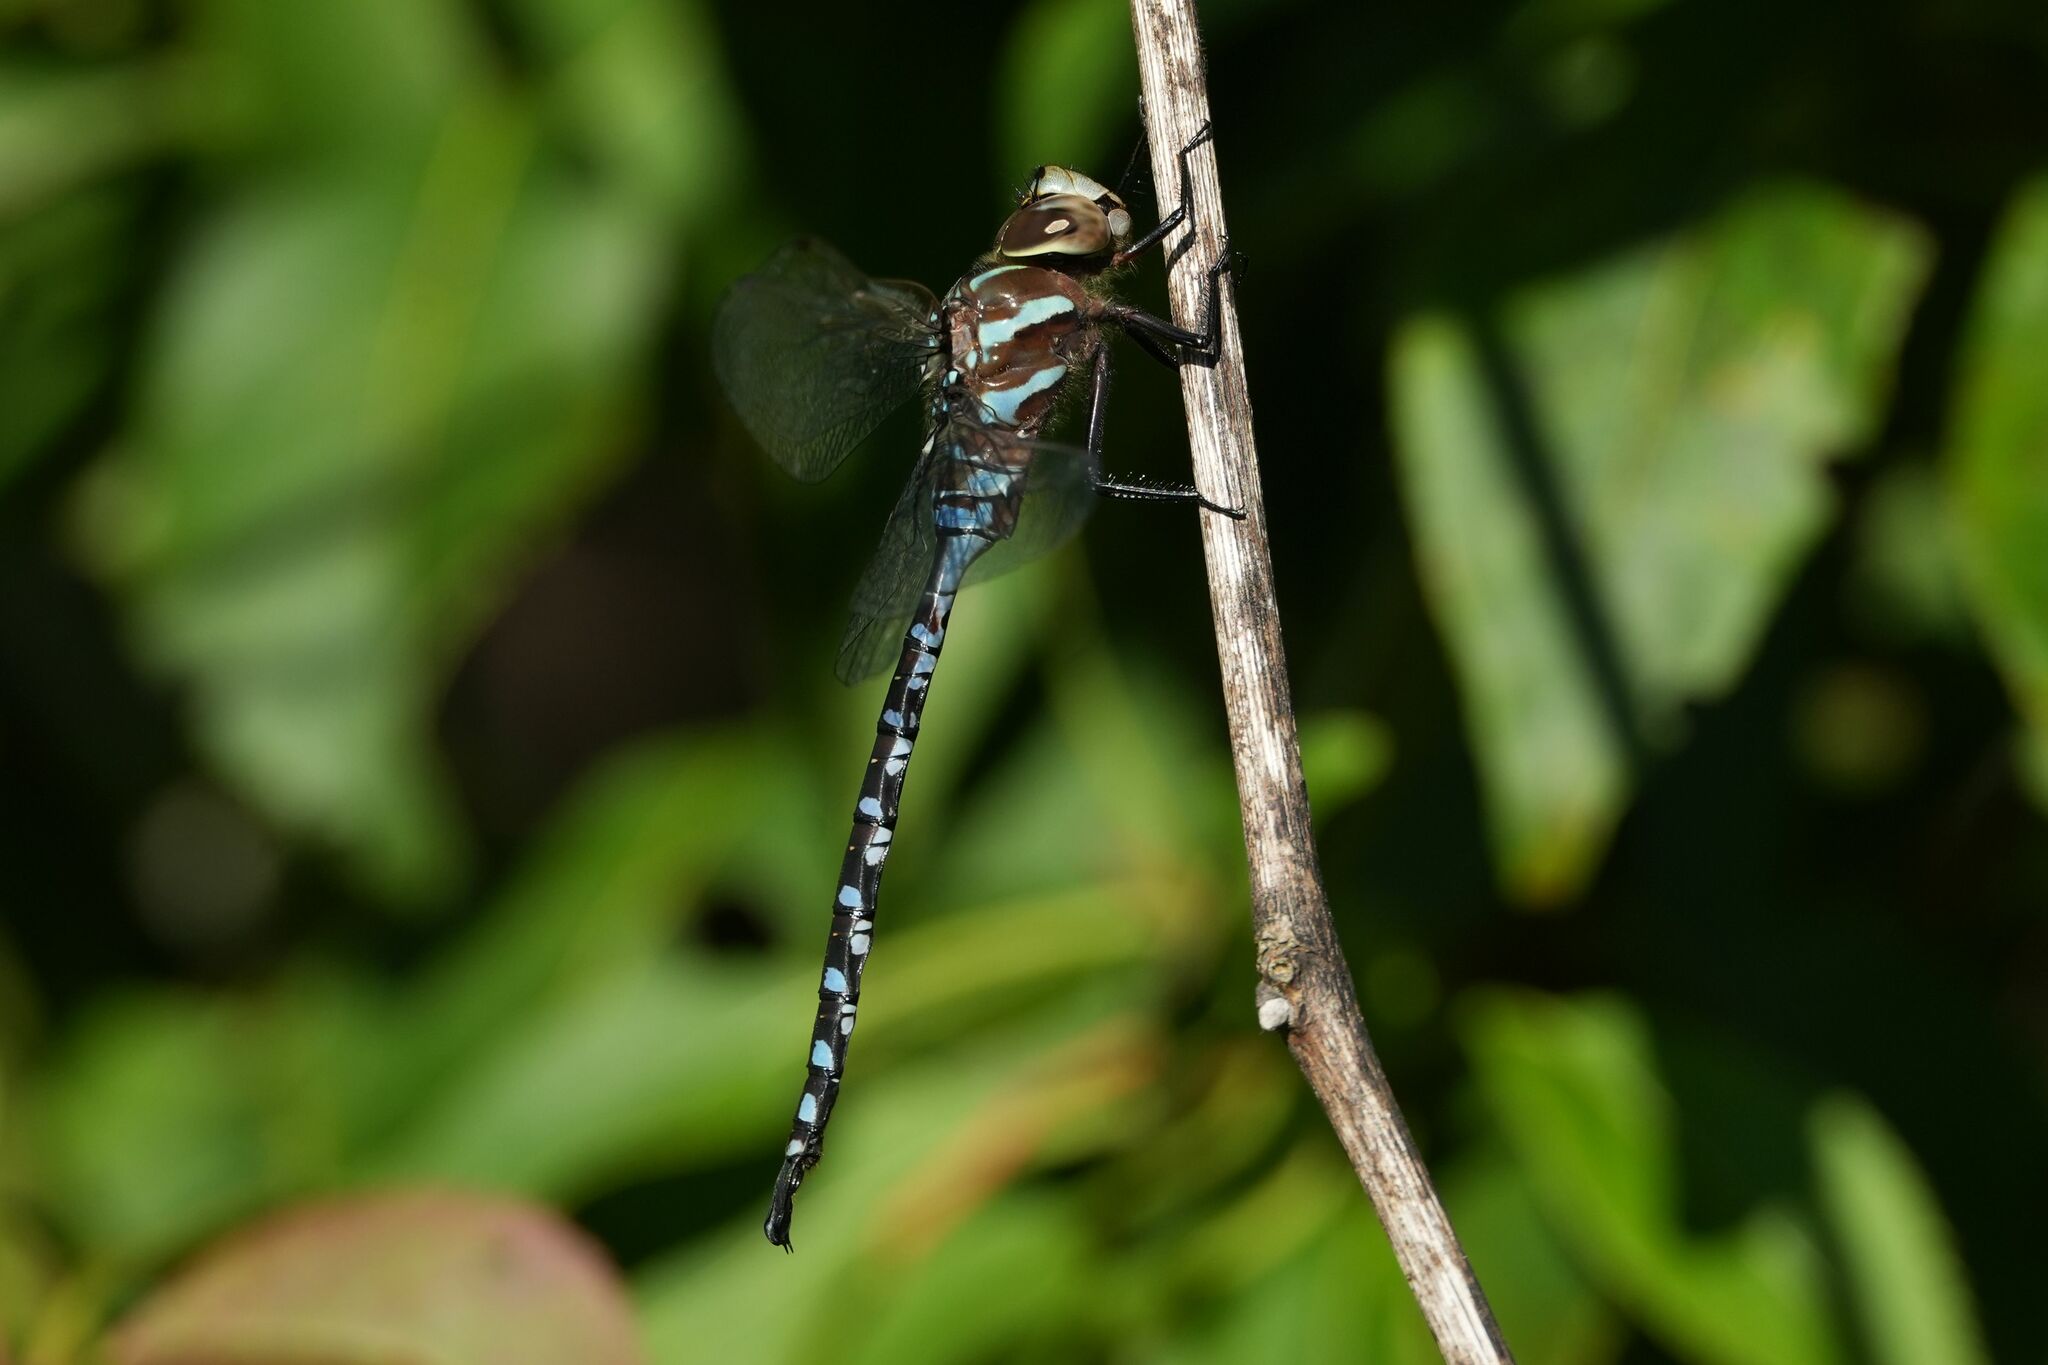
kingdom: Animalia
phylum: Arthropoda
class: Insecta
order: Odonata
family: Aeshnidae
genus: Aeshna
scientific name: Aeshna constricta
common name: Lance-tipped darner
